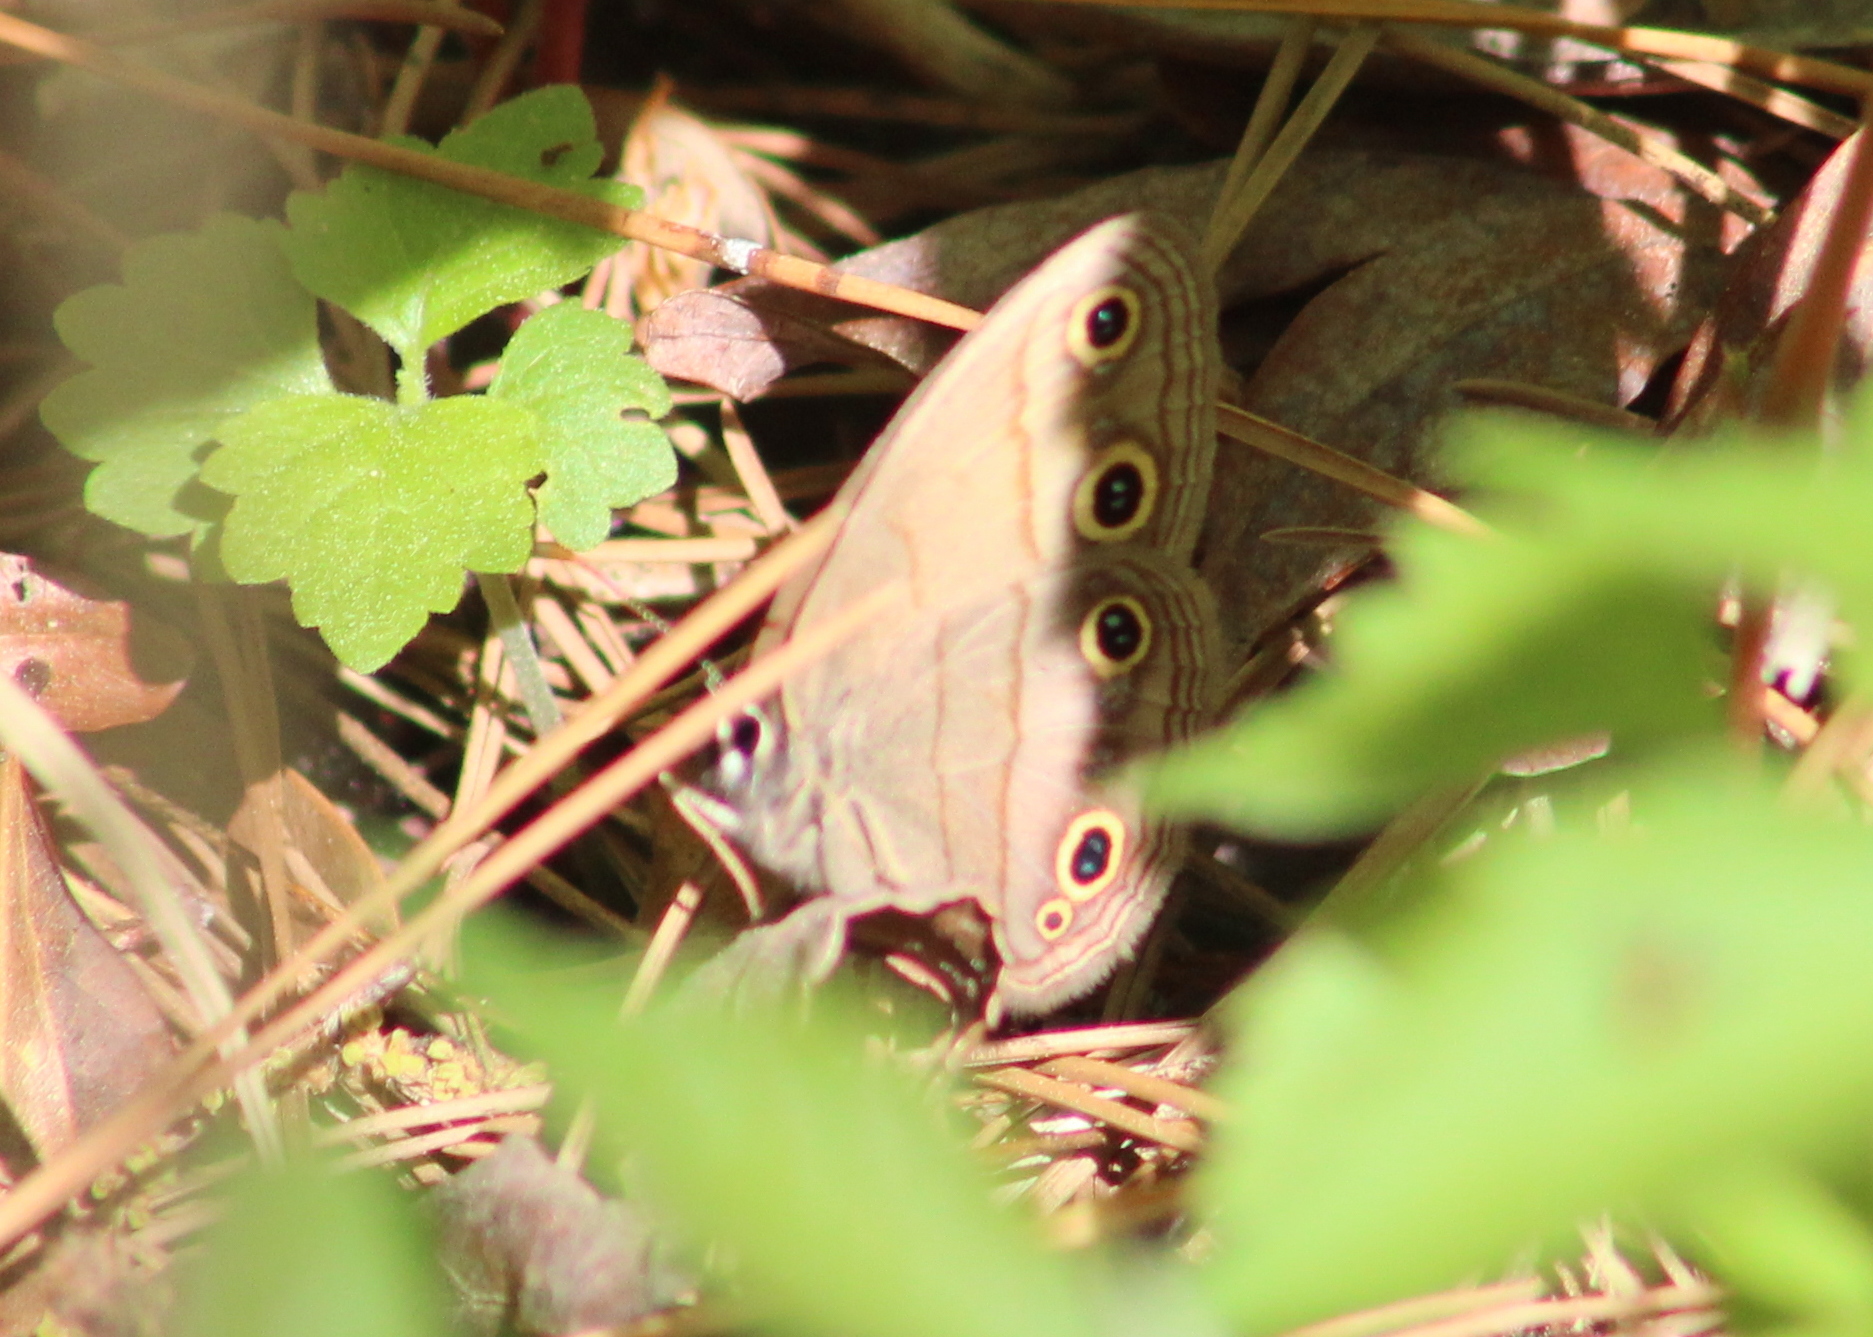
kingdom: Animalia
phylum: Arthropoda
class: Insecta
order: Lepidoptera
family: Nymphalidae
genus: Euptychia
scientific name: Euptychia cymela
